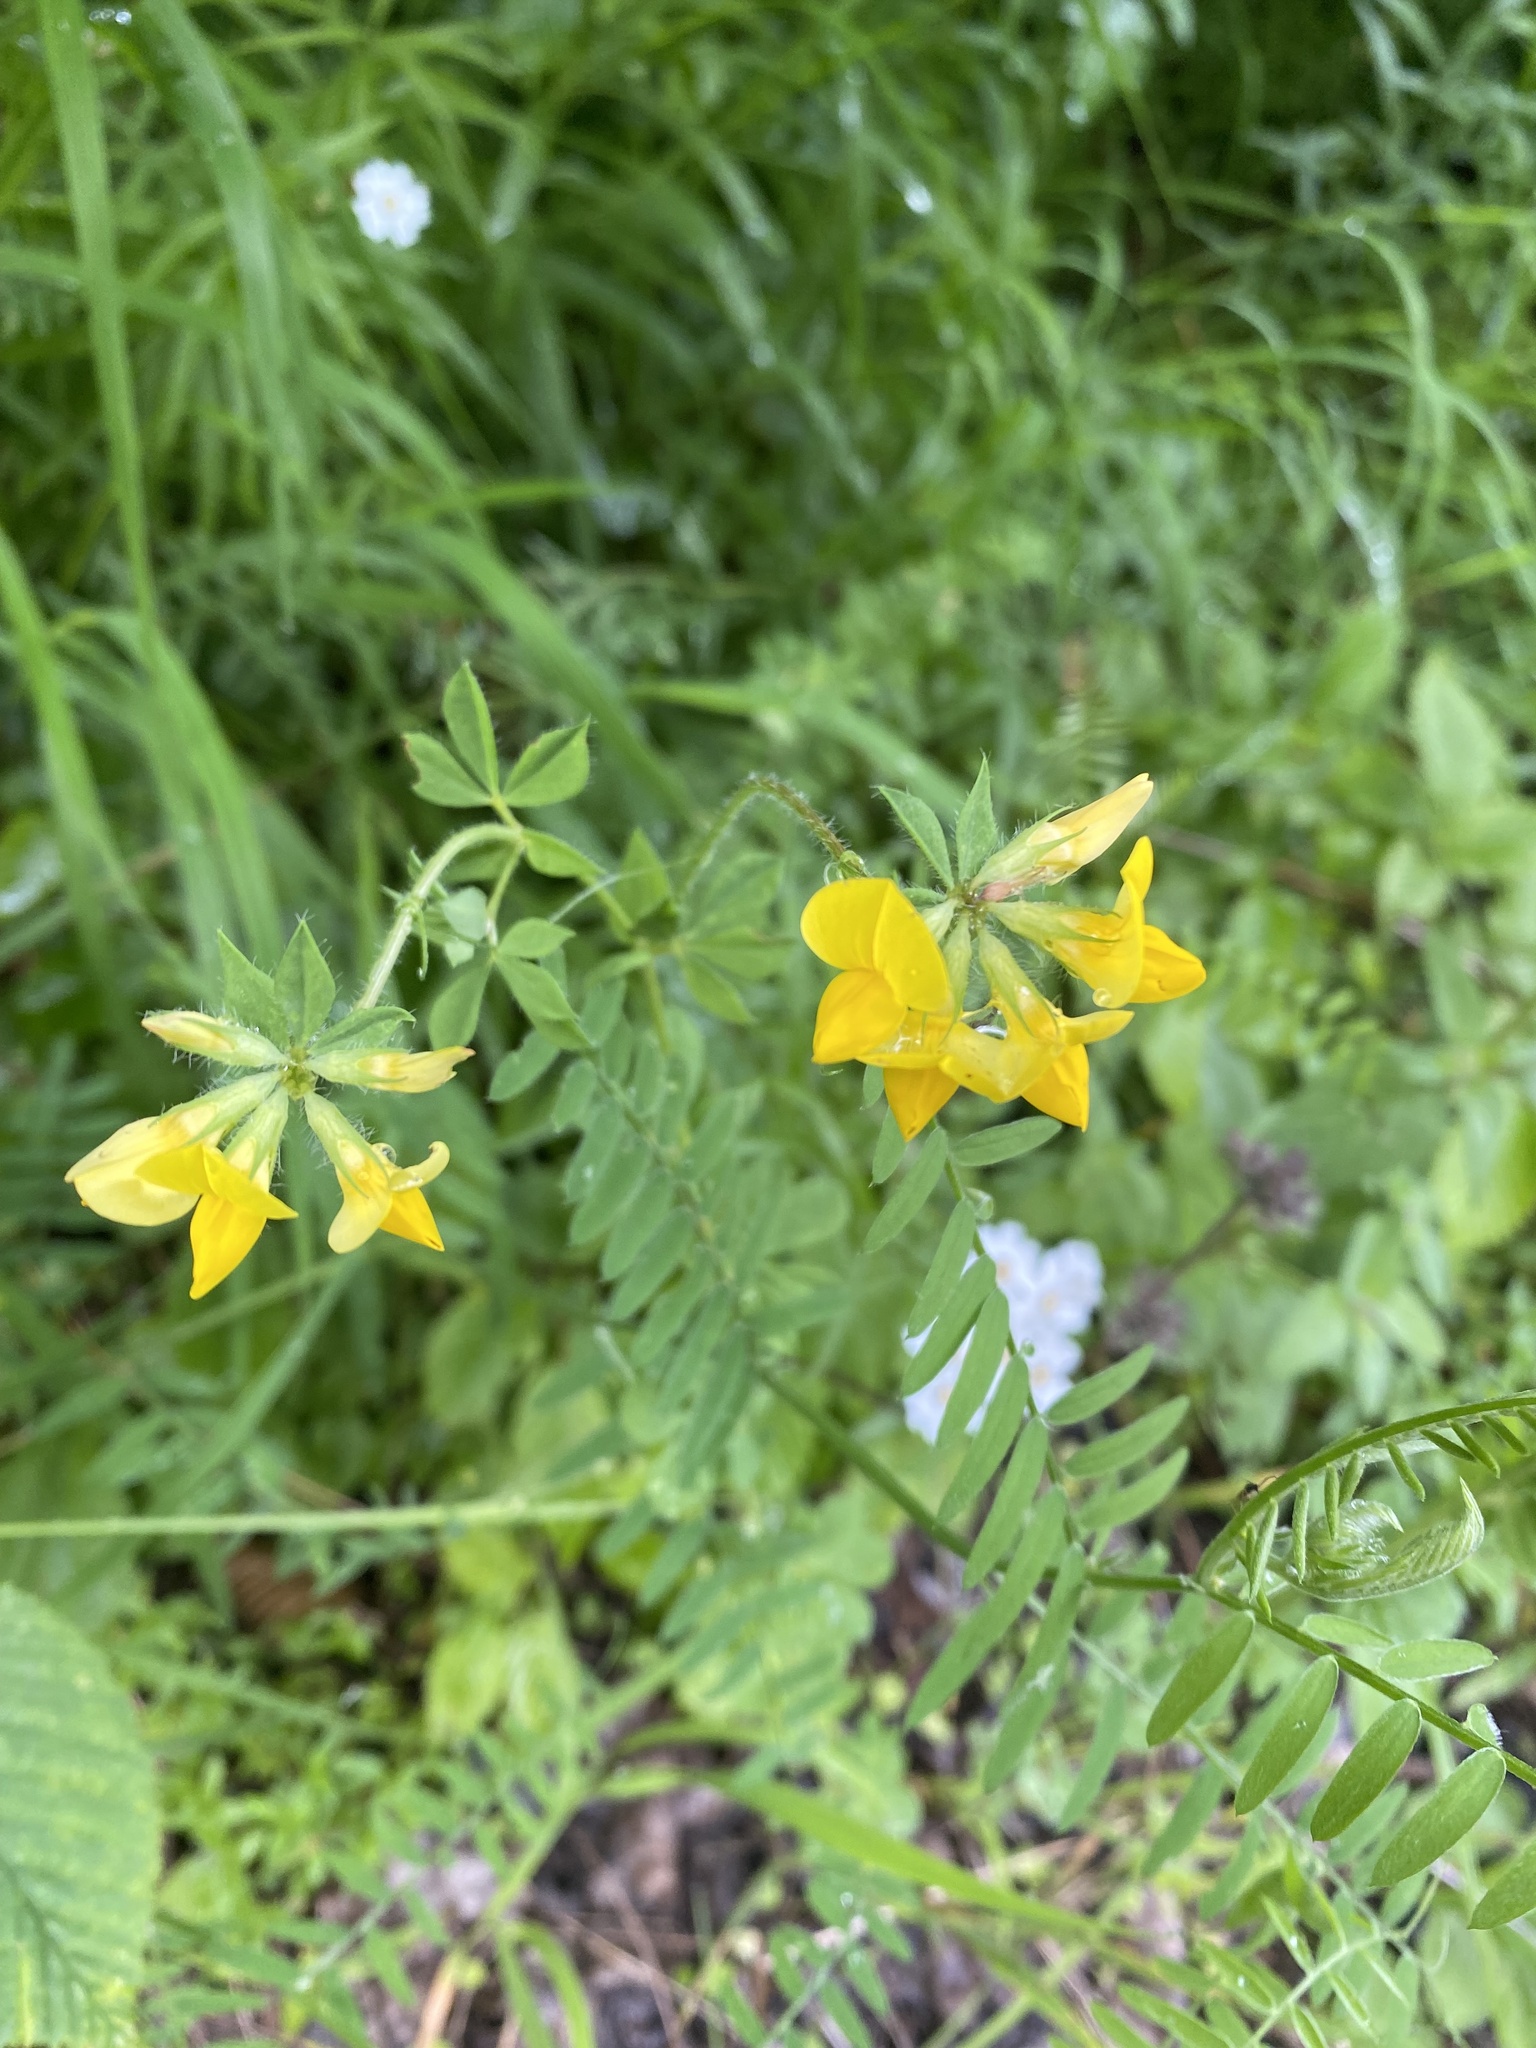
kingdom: Plantae
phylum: Tracheophyta
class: Magnoliopsida
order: Fabales
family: Fabaceae
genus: Lotus
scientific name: Lotus corniculatus
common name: Common bird's-foot-trefoil
